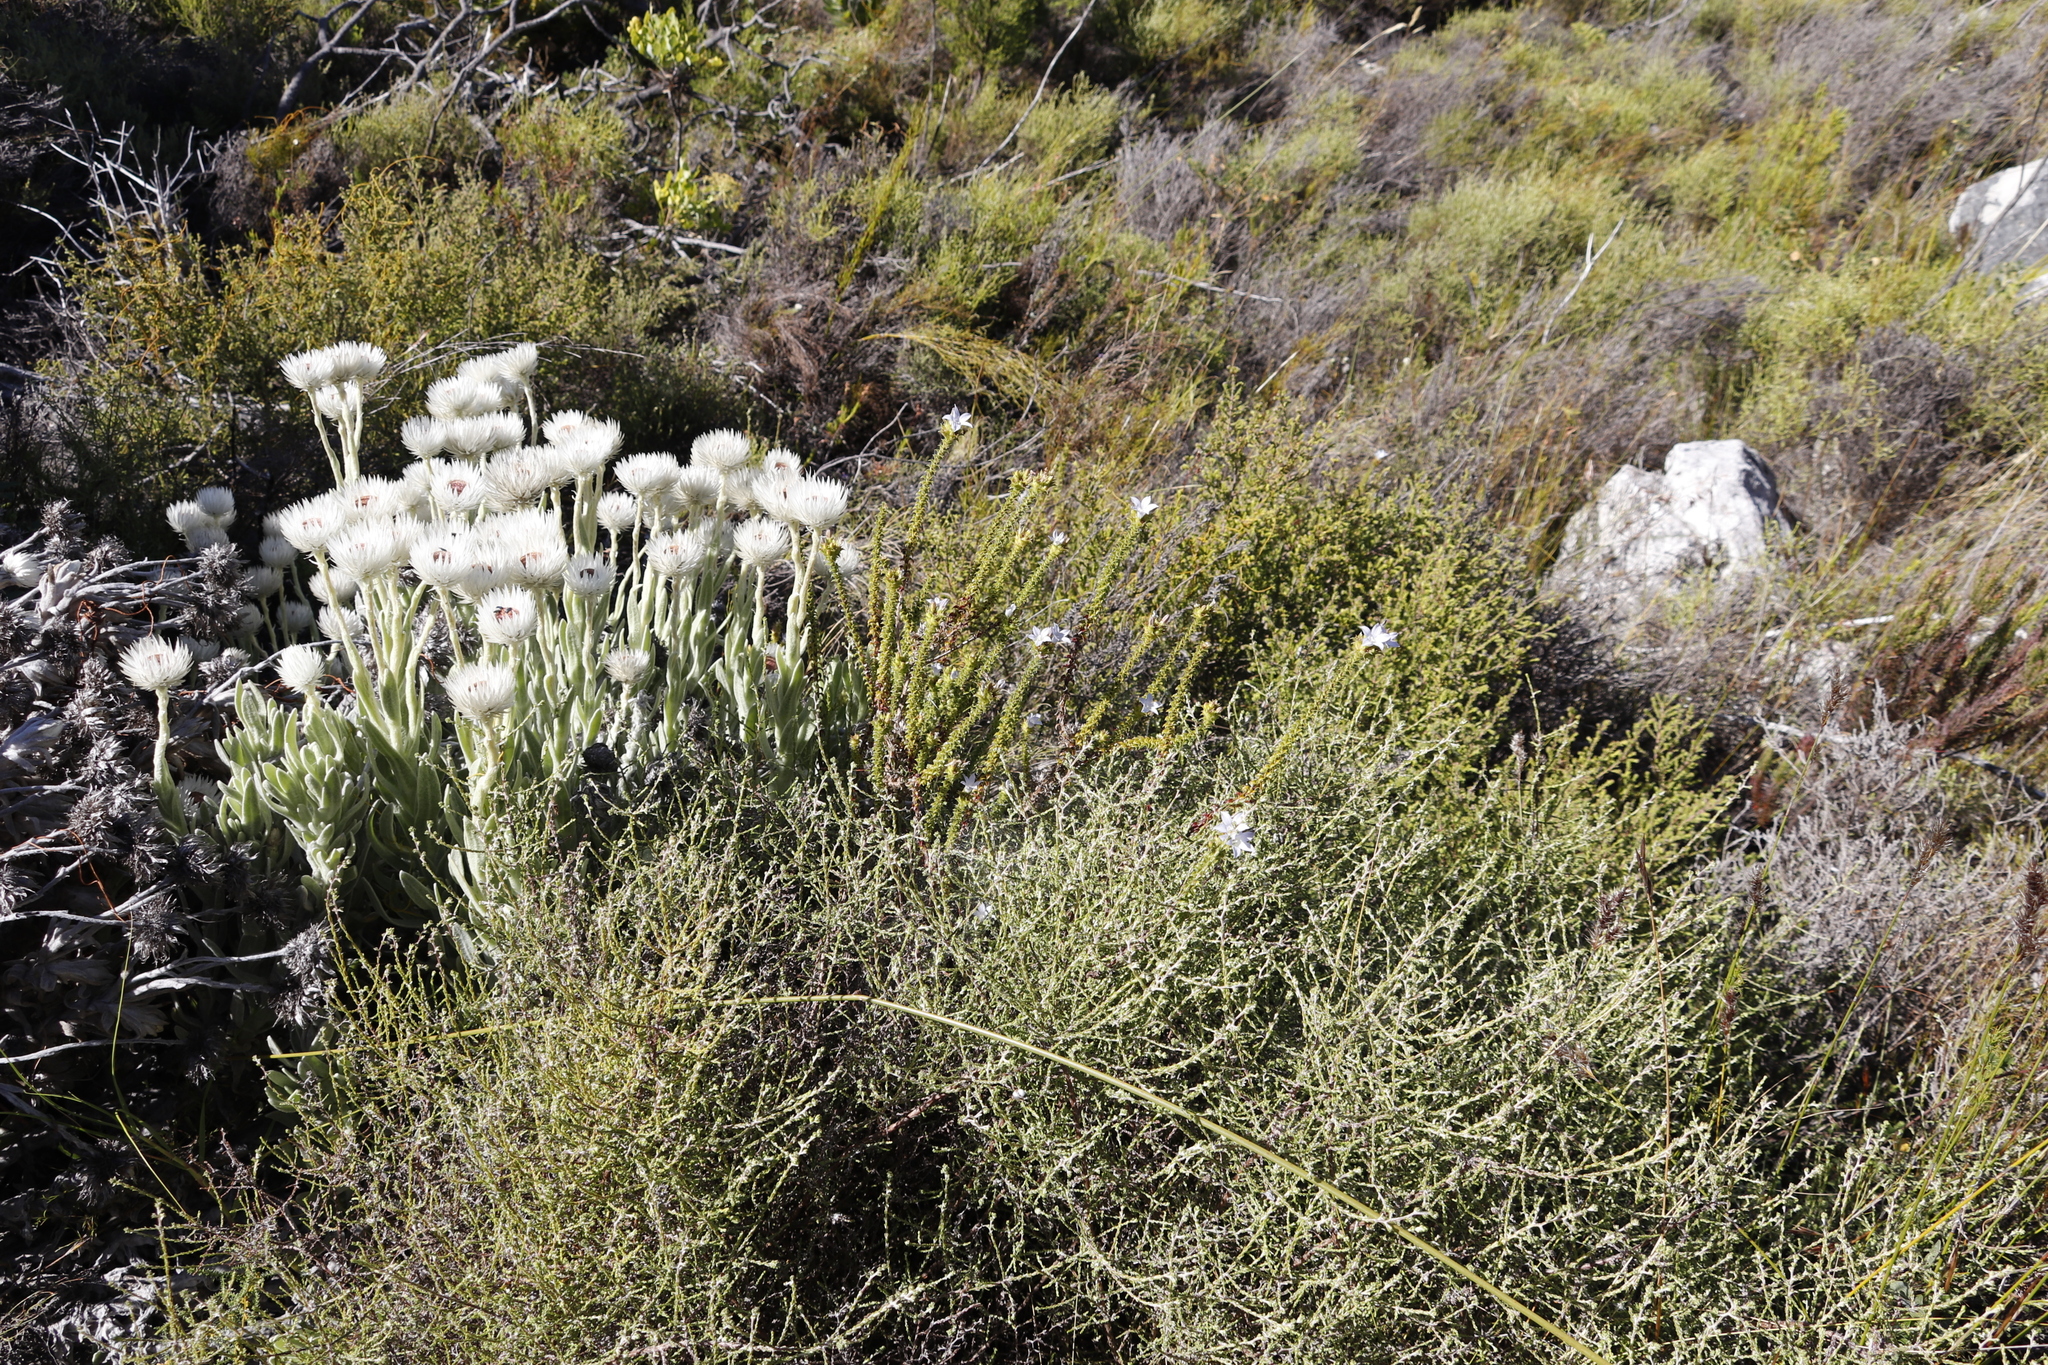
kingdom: Plantae
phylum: Tracheophyta
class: Magnoliopsida
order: Asterales
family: Asteraceae
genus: Syncarpha
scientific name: Syncarpha vestita
